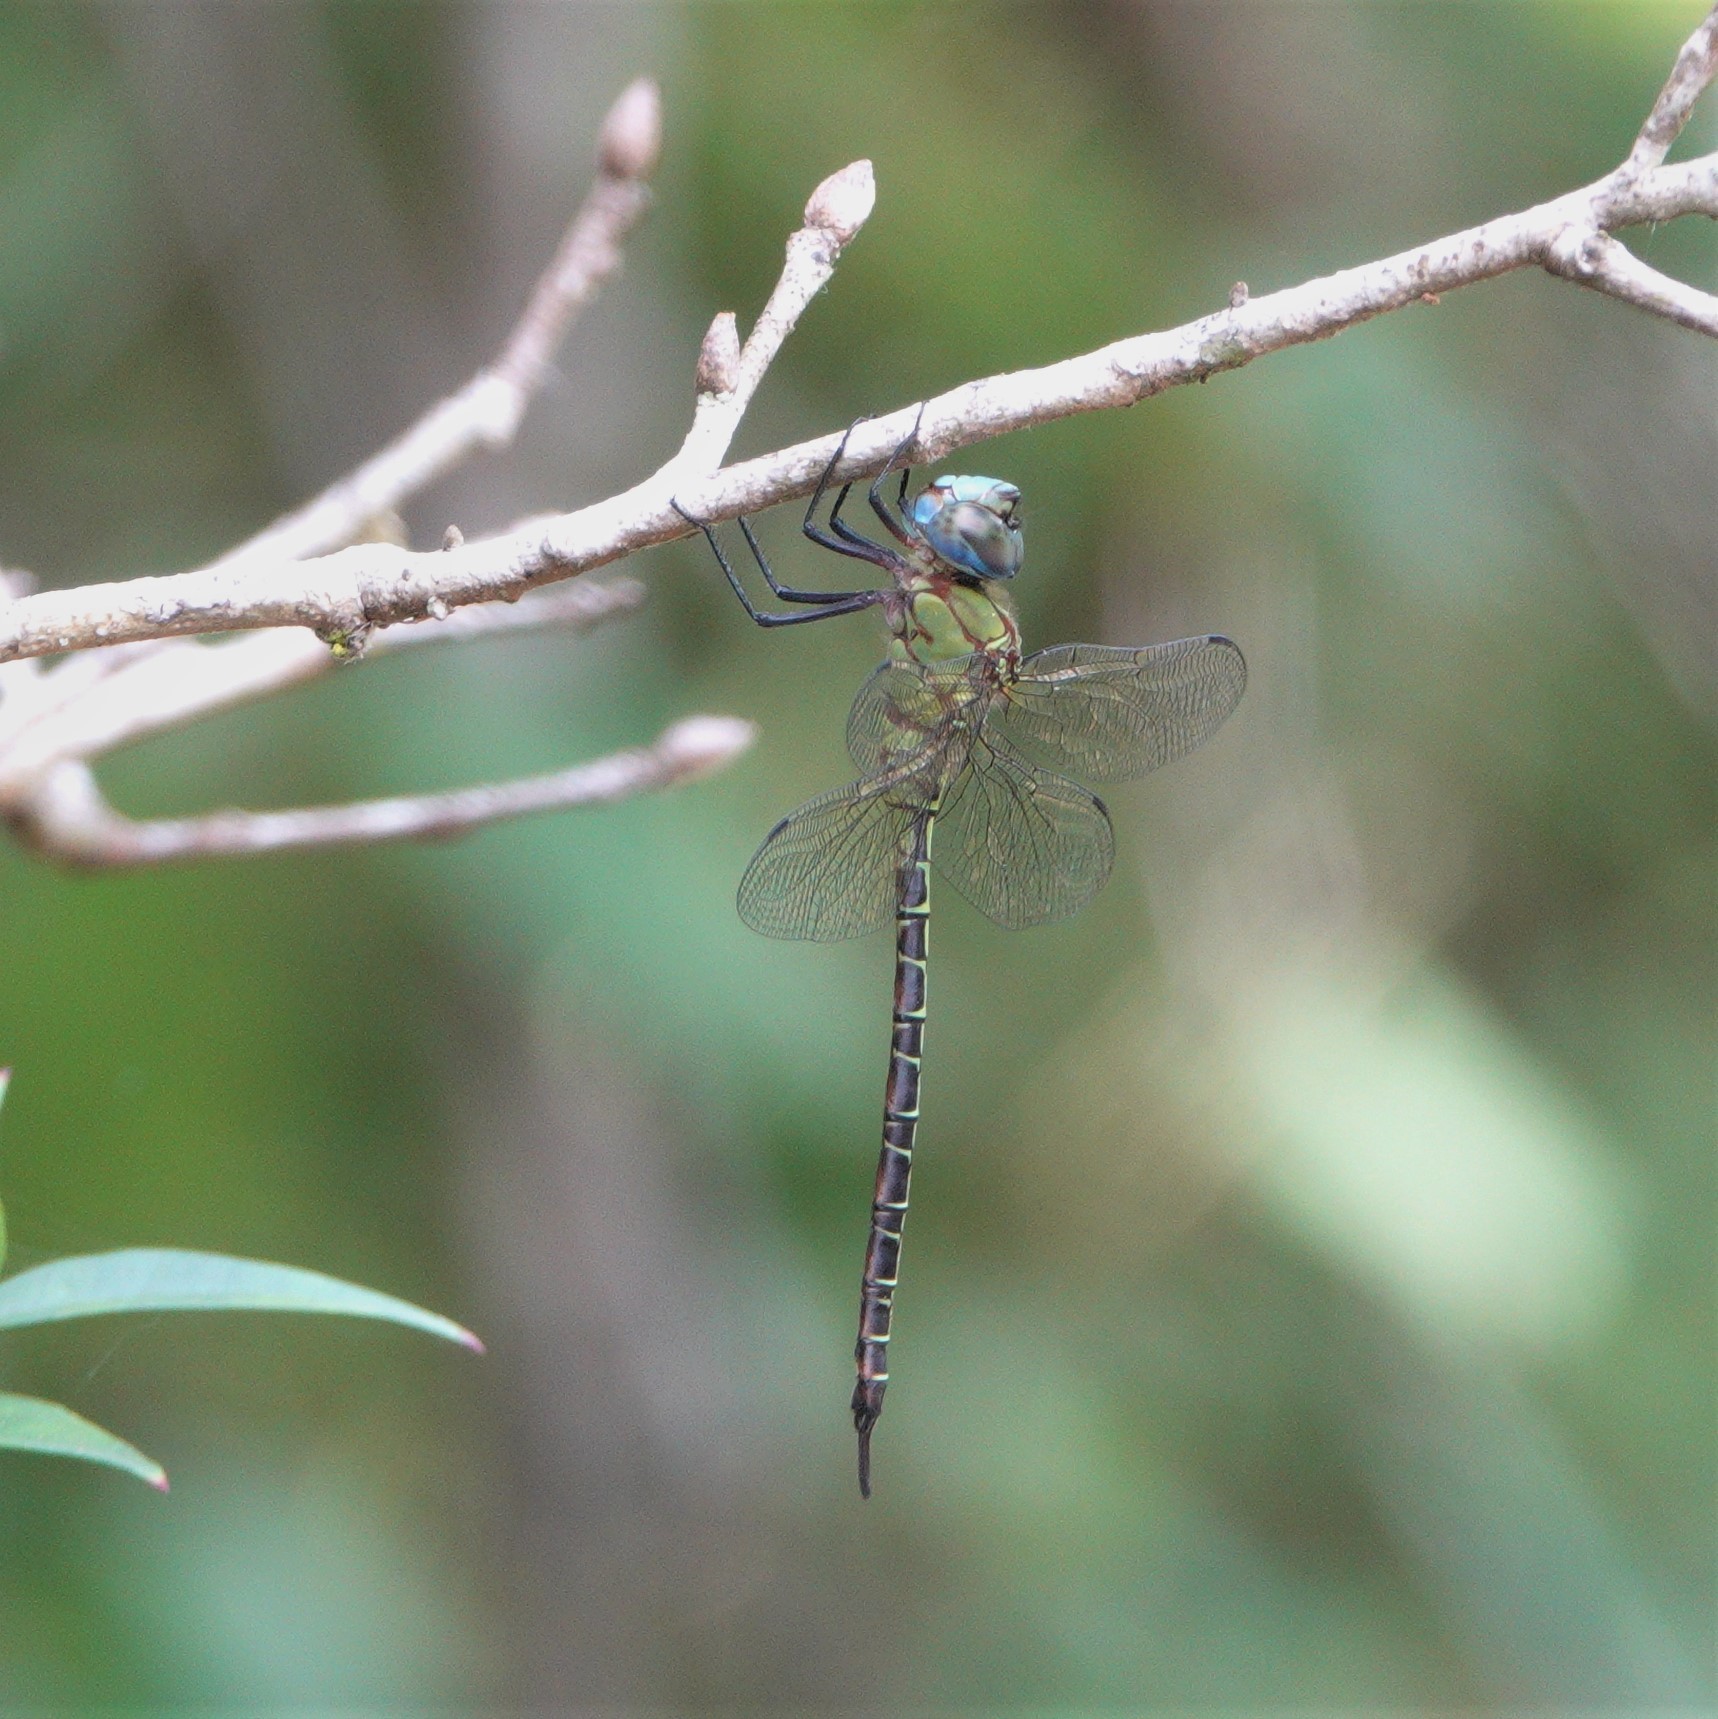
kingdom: Animalia
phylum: Arthropoda
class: Insecta
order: Odonata
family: Aeshnidae
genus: Coryphaeschna
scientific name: Coryphaeschna adnexa
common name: Blue-faced darner
